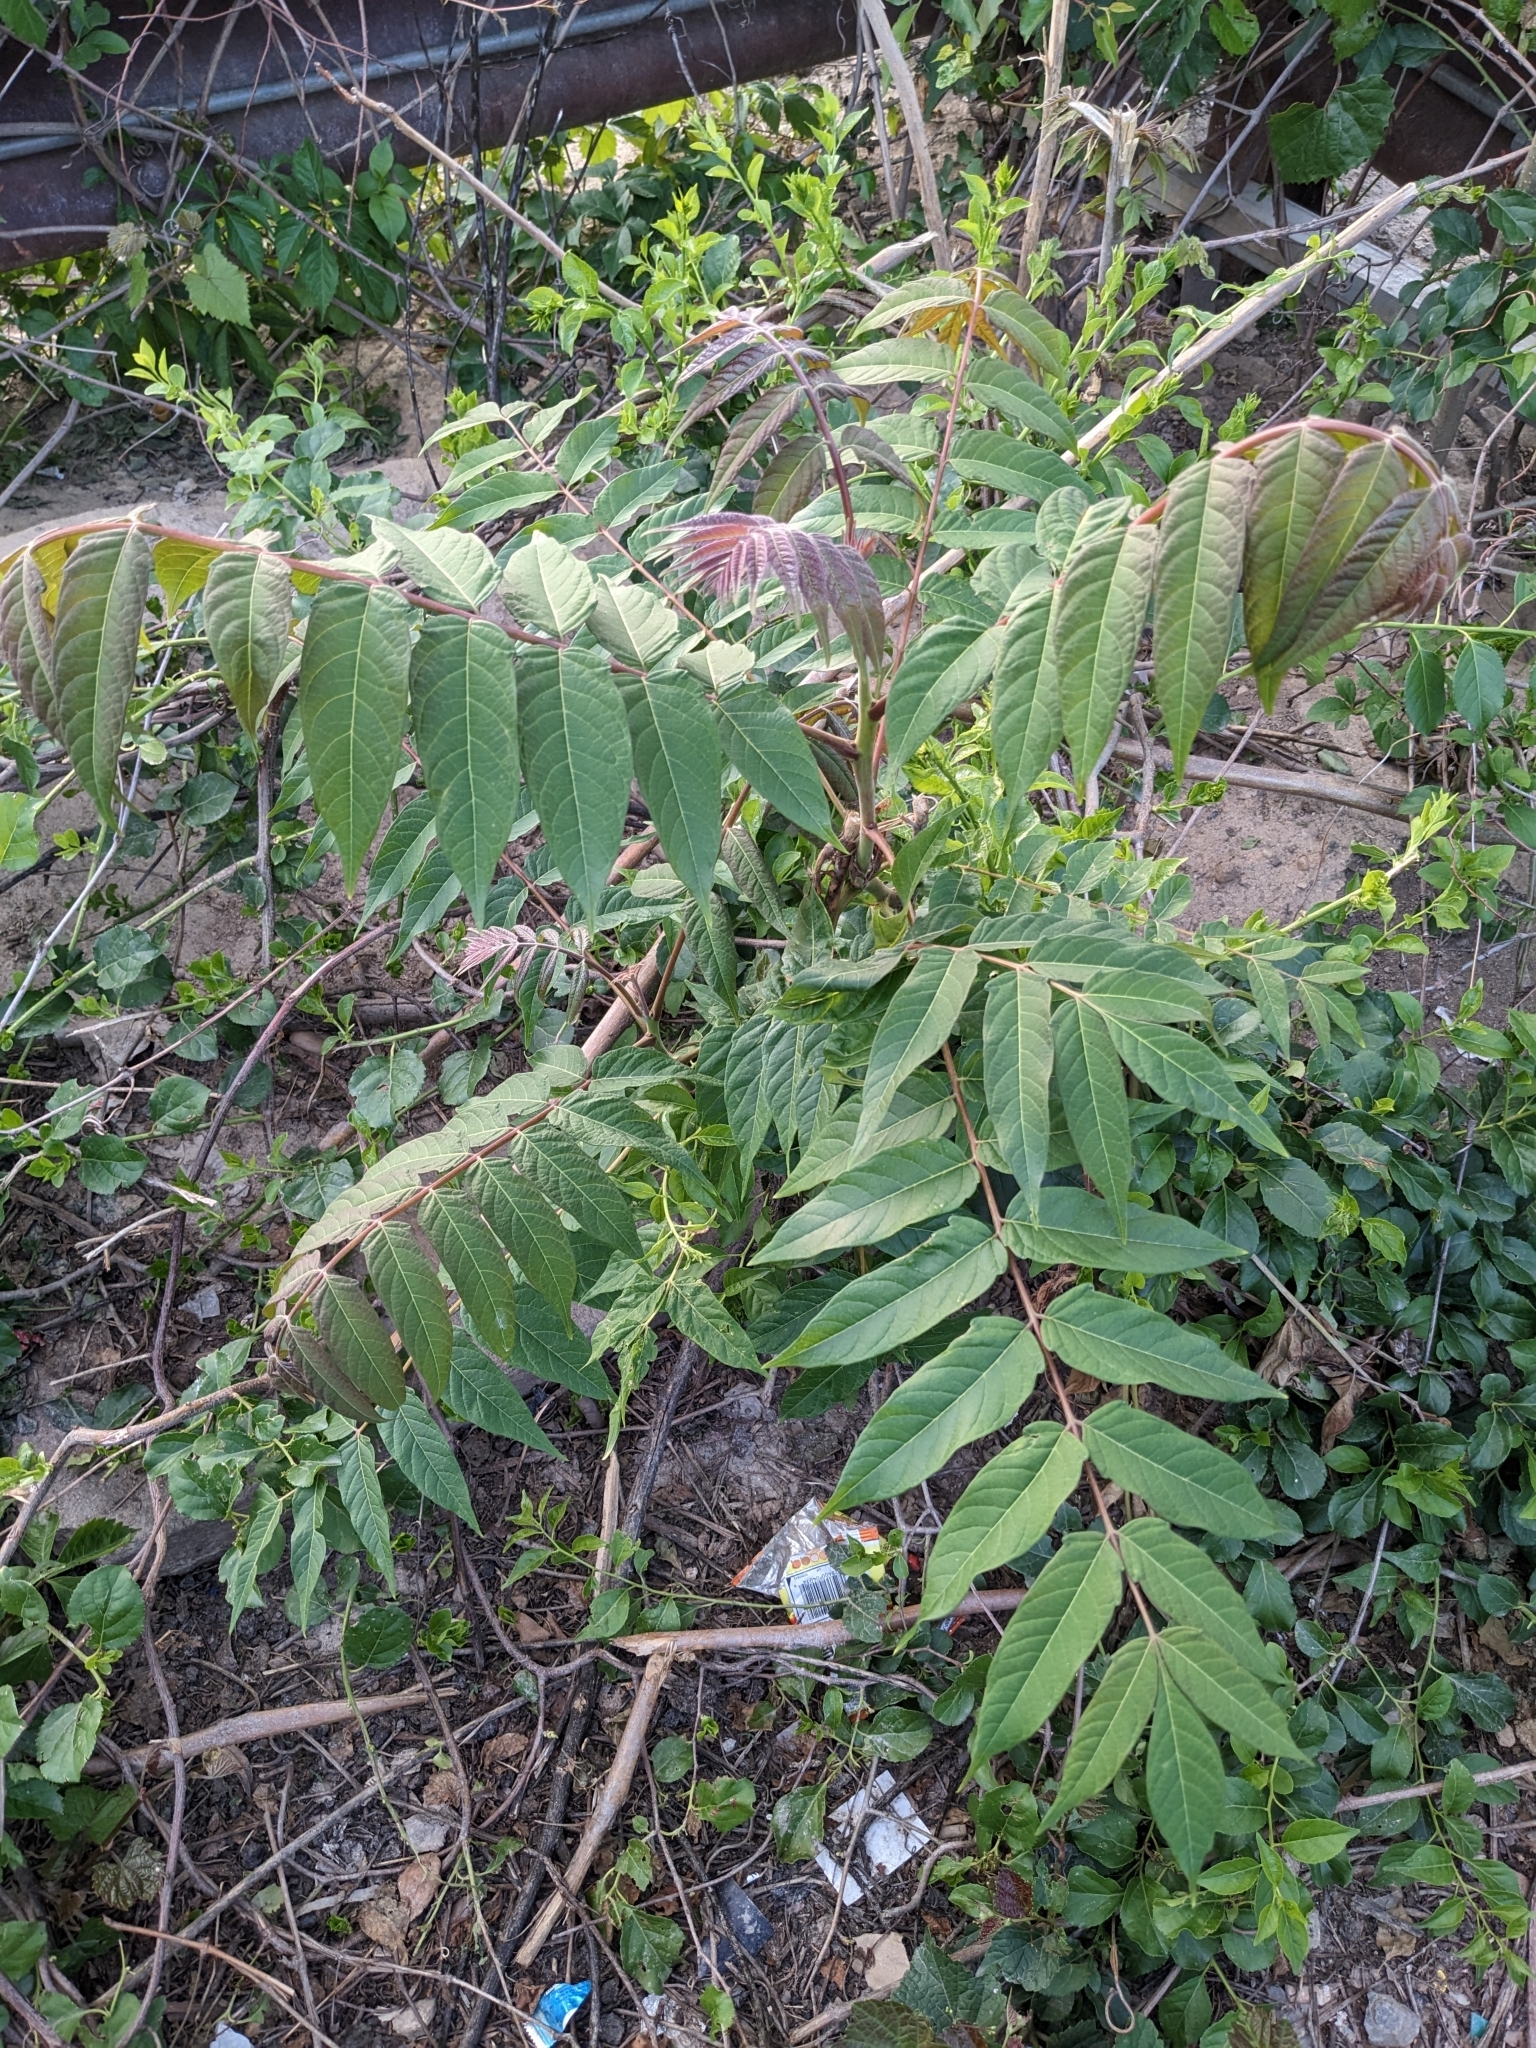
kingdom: Plantae
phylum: Tracheophyta
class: Magnoliopsida
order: Sapindales
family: Simaroubaceae
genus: Ailanthus
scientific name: Ailanthus altissima
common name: Tree-of-heaven
